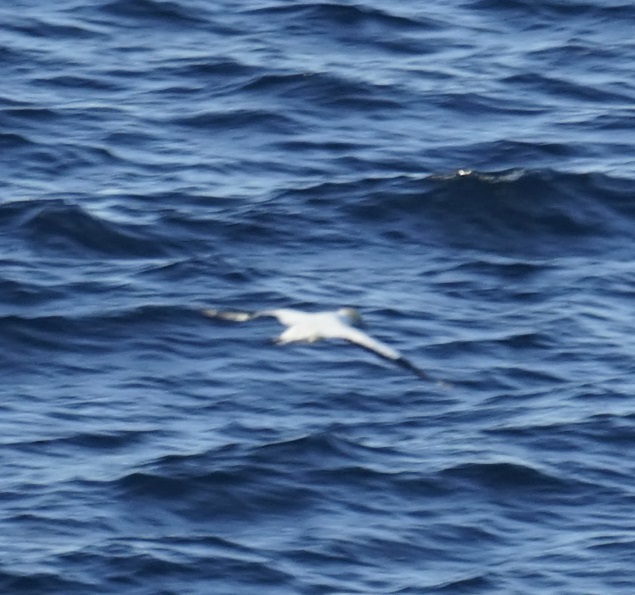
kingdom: Animalia
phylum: Chordata
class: Aves
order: Suliformes
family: Sulidae
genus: Morus
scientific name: Morus serrator
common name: Australasian gannet
